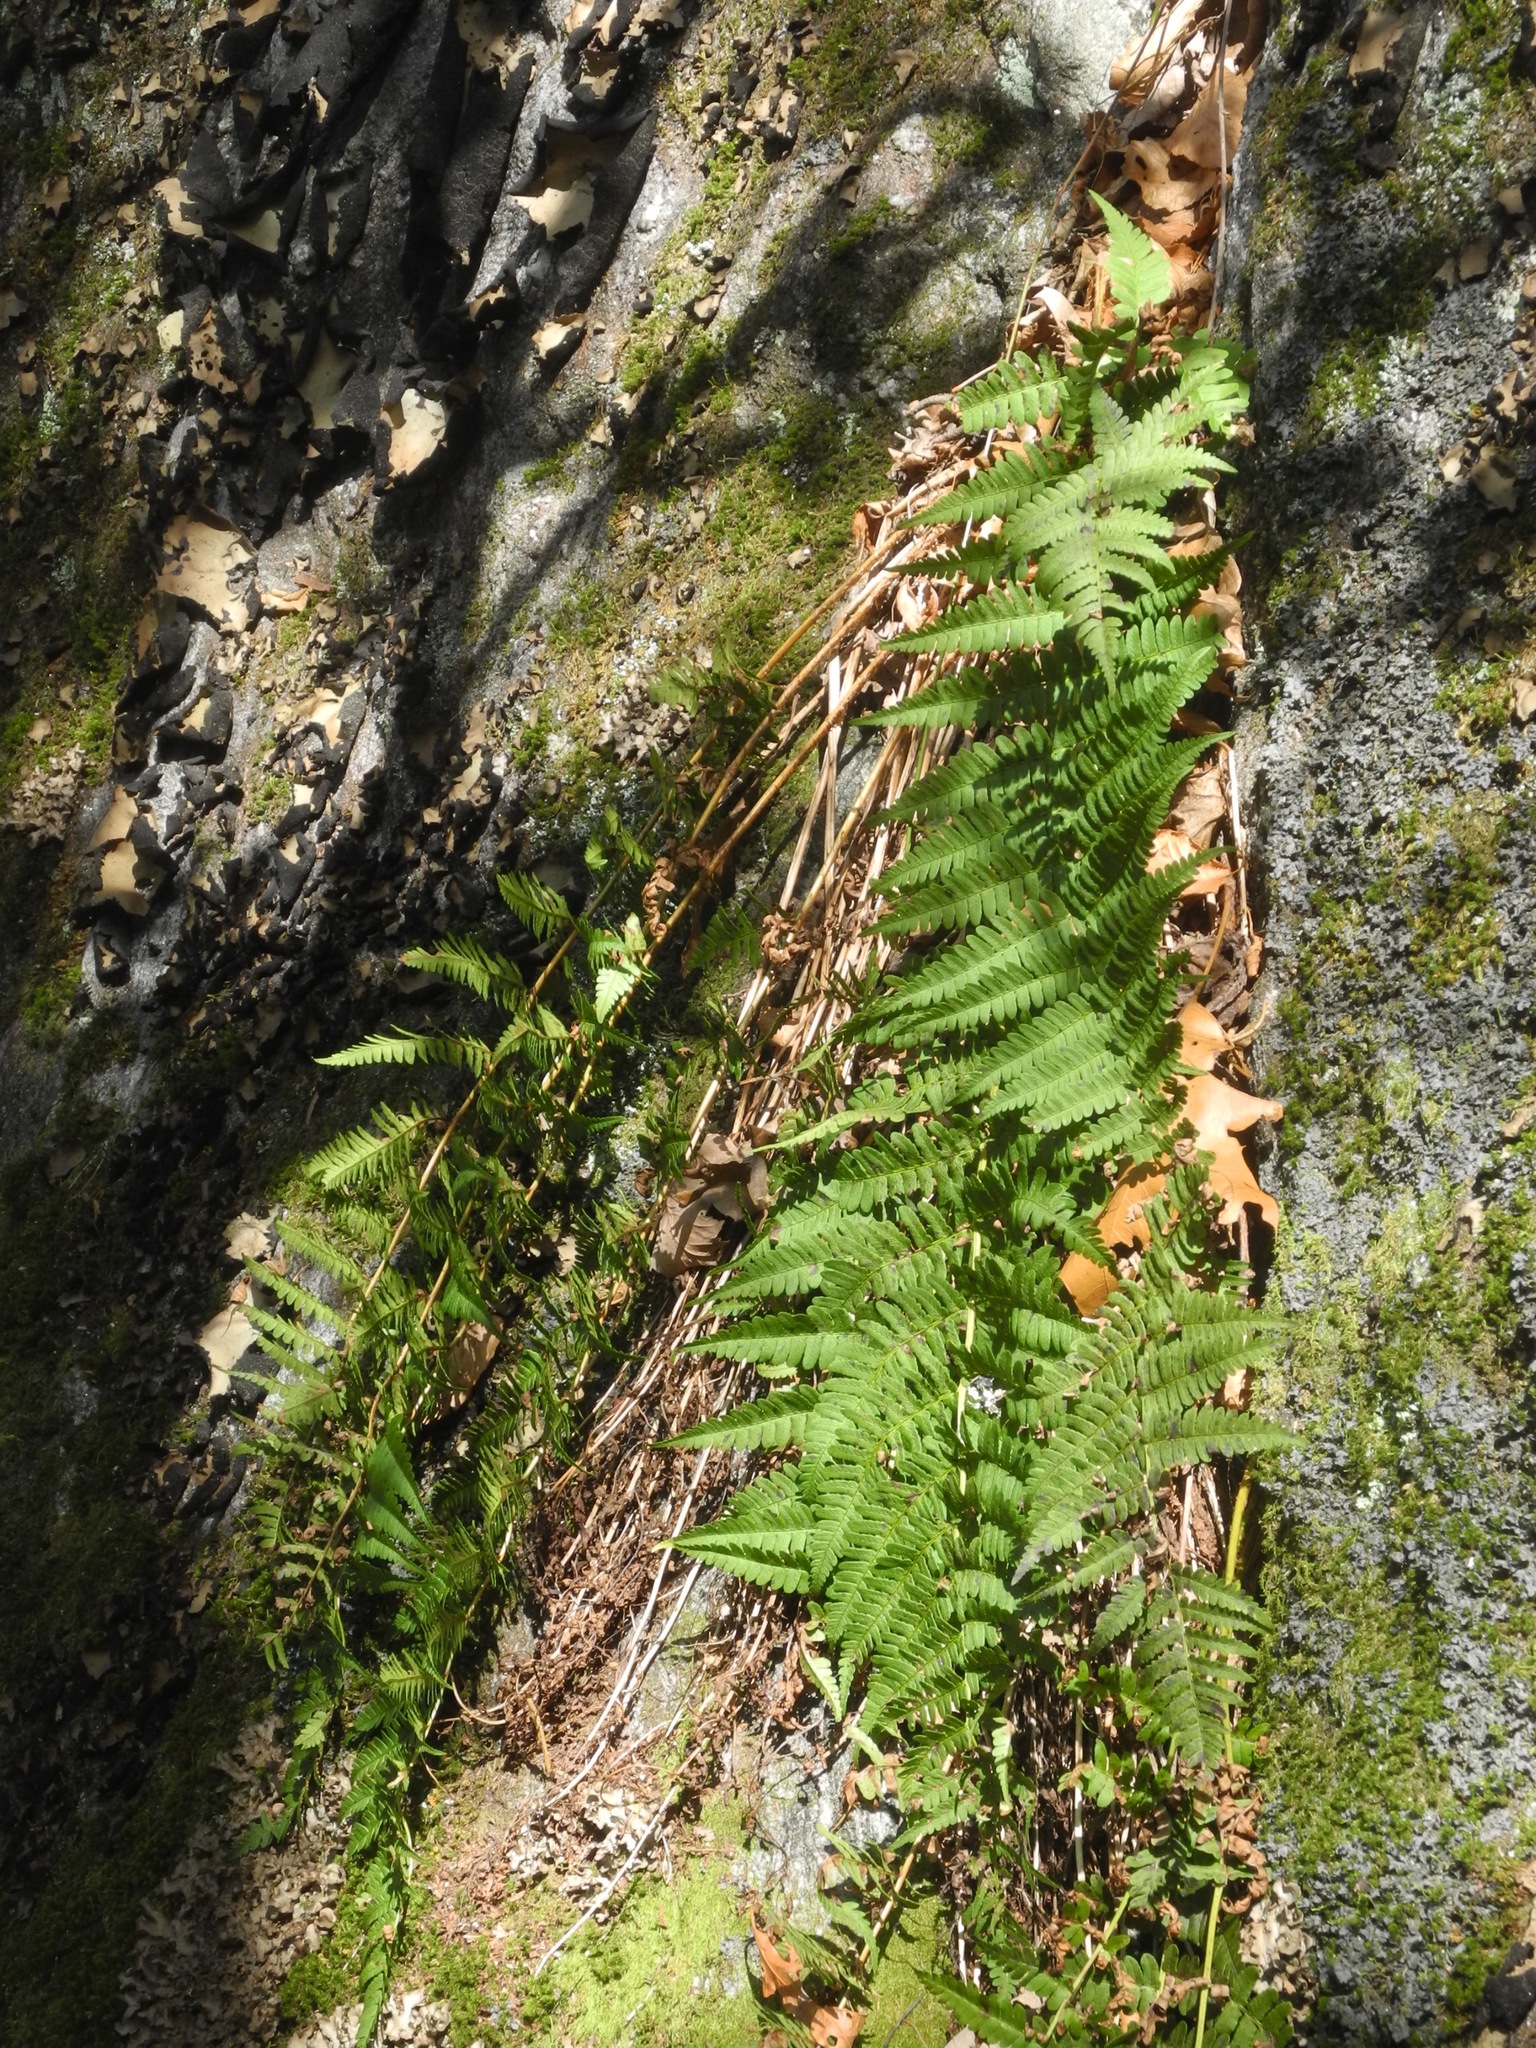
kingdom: Plantae
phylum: Tracheophyta
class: Polypodiopsida
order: Polypodiales
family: Dryopteridaceae
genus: Dryopteris
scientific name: Dryopteris marginalis
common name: Marginal wood fern
